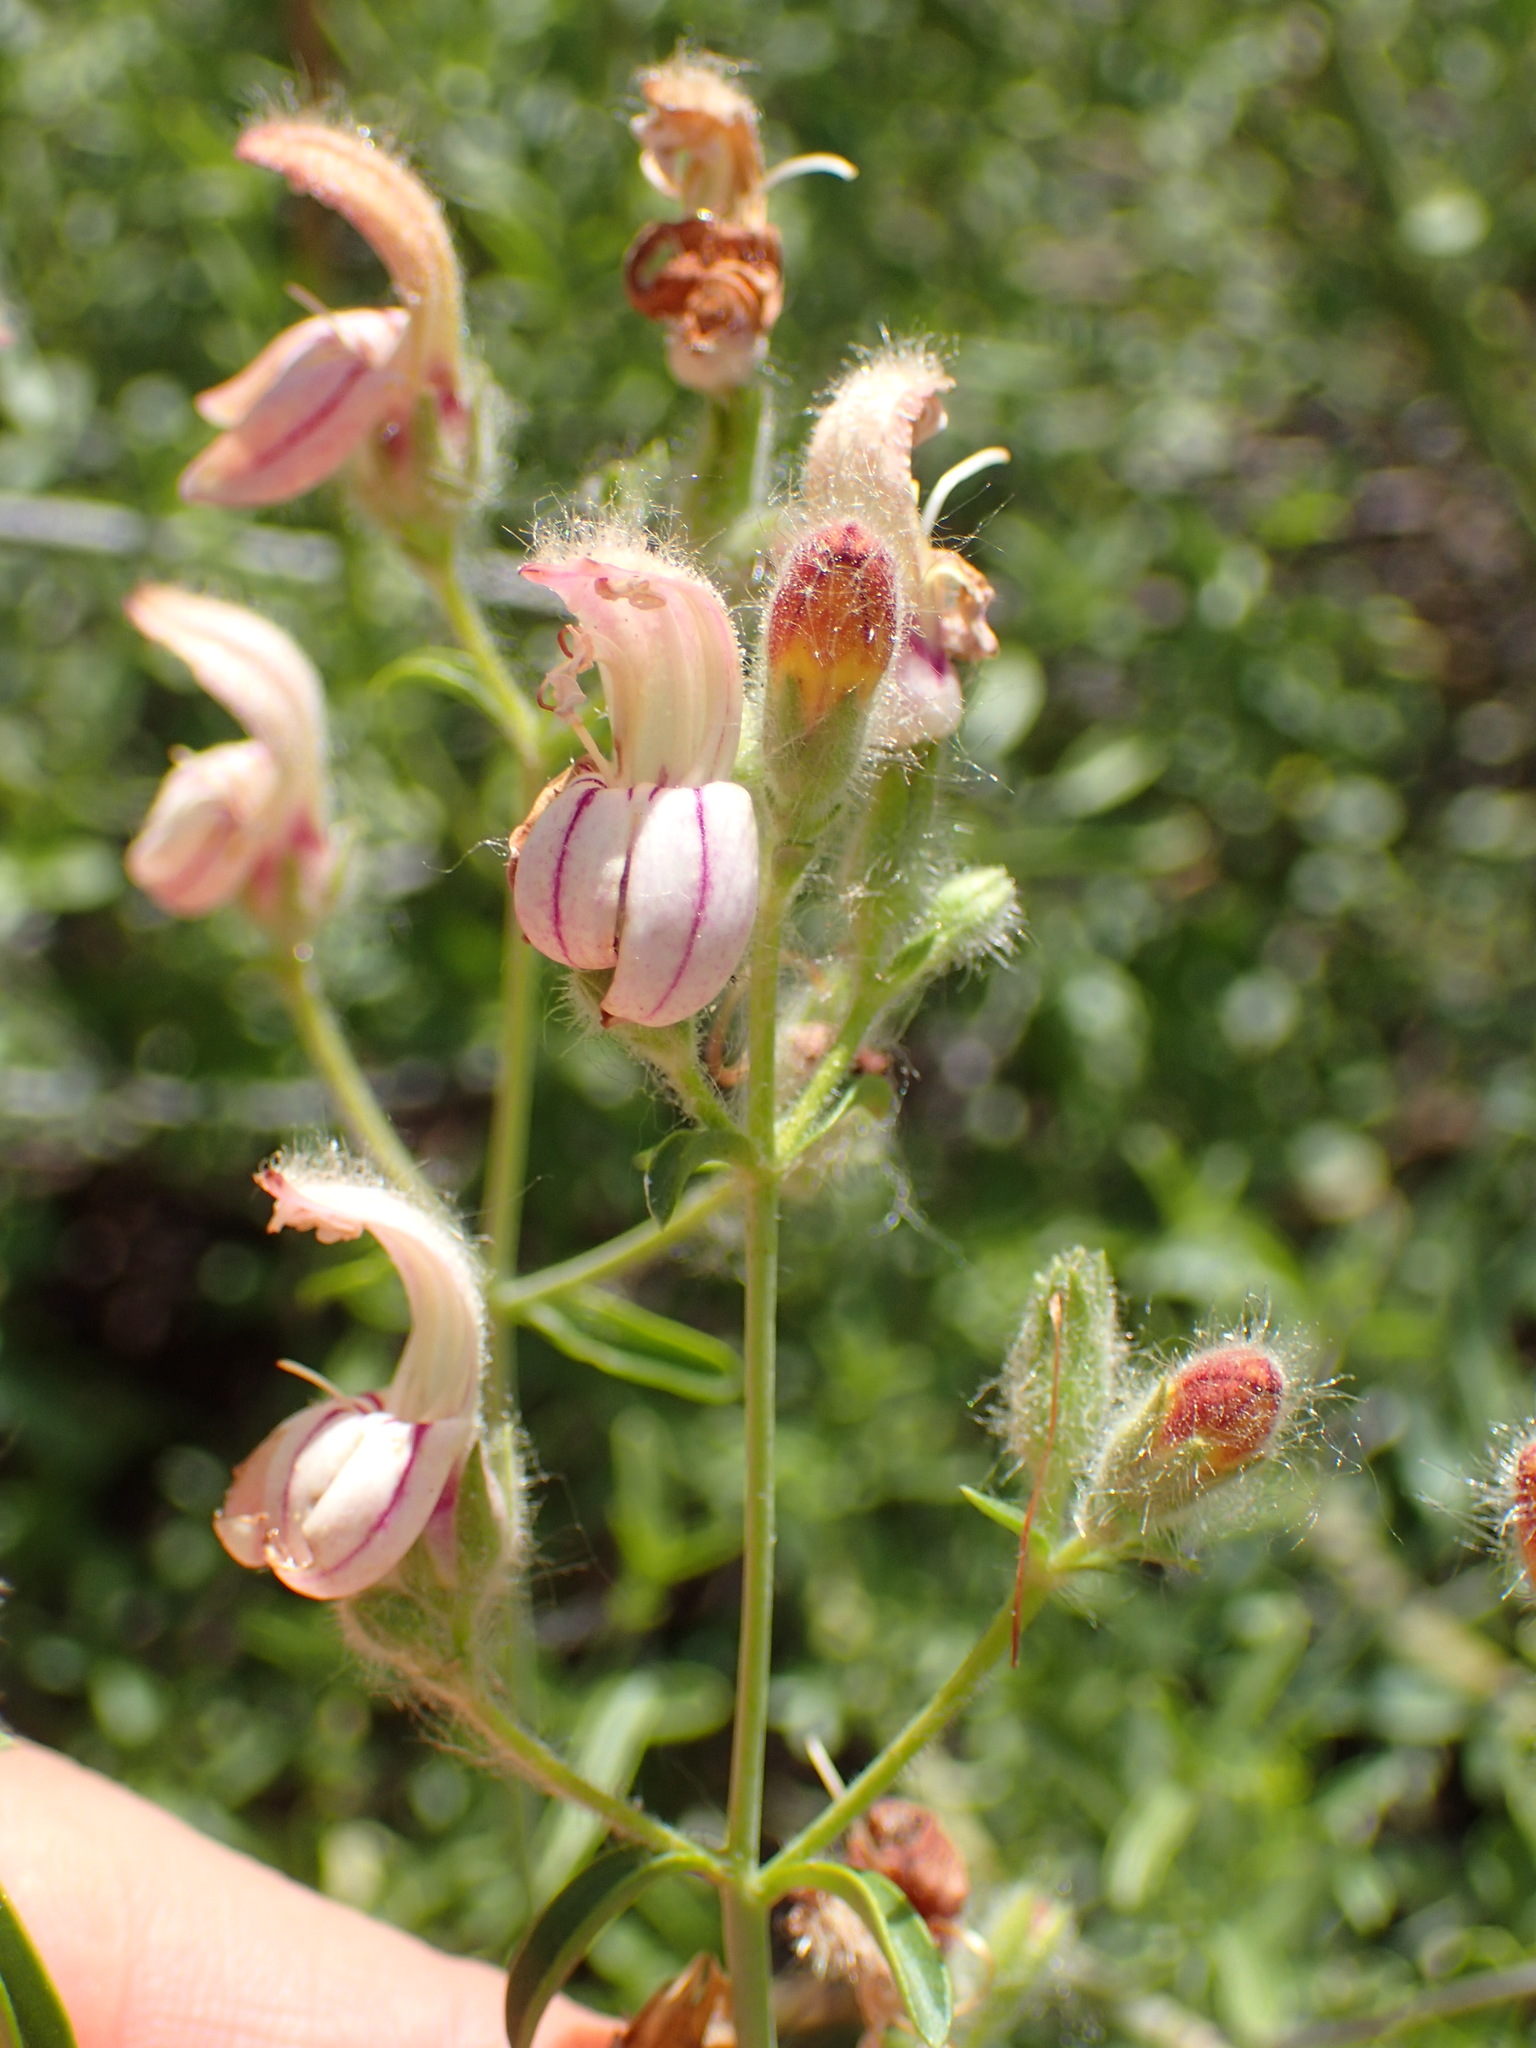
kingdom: Plantae
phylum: Tracheophyta
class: Magnoliopsida
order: Lamiales
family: Plantaginaceae
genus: Keckiella
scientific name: Keckiella breviflora
